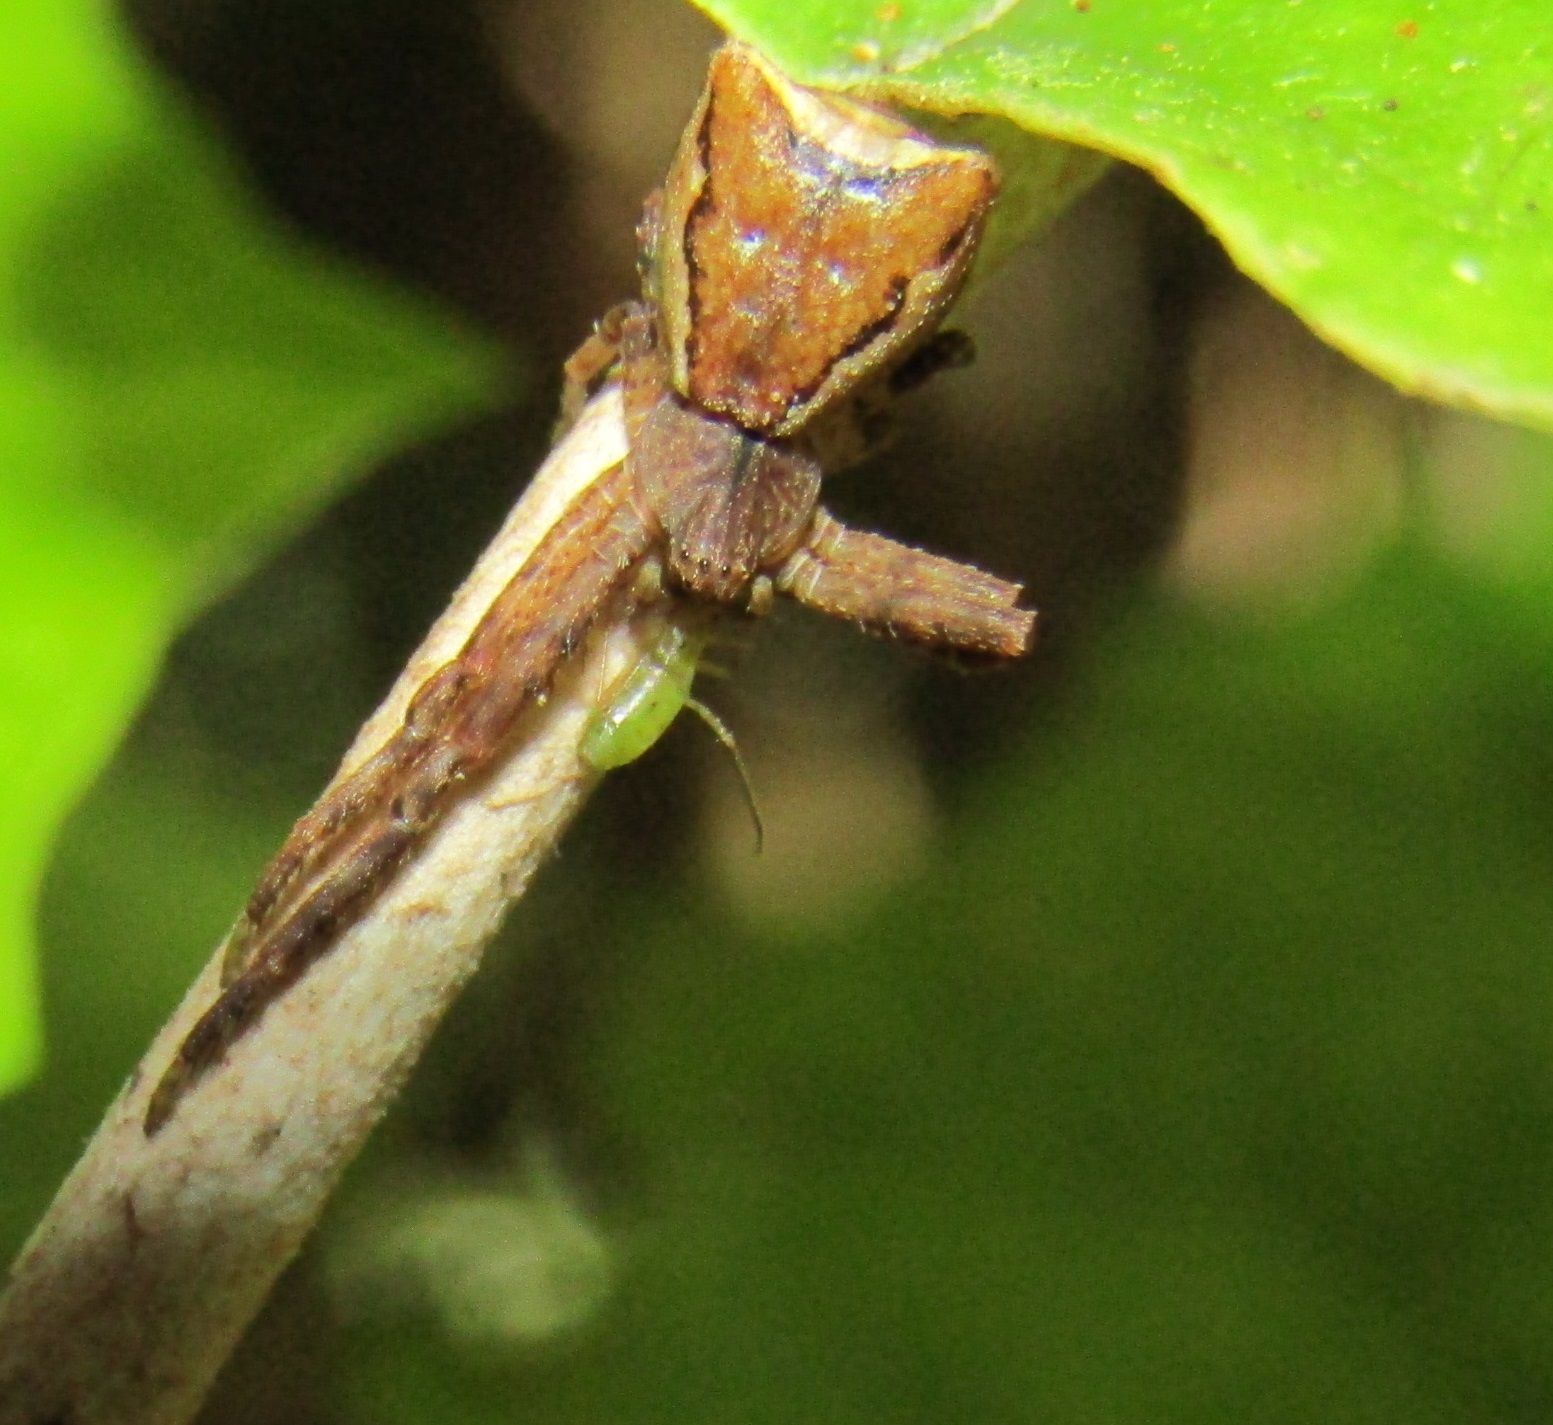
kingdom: Animalia
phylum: Arthropoda
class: Arachnida
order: Araneae
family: Thomisidae
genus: Sidymella
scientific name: Sidymella angularis
